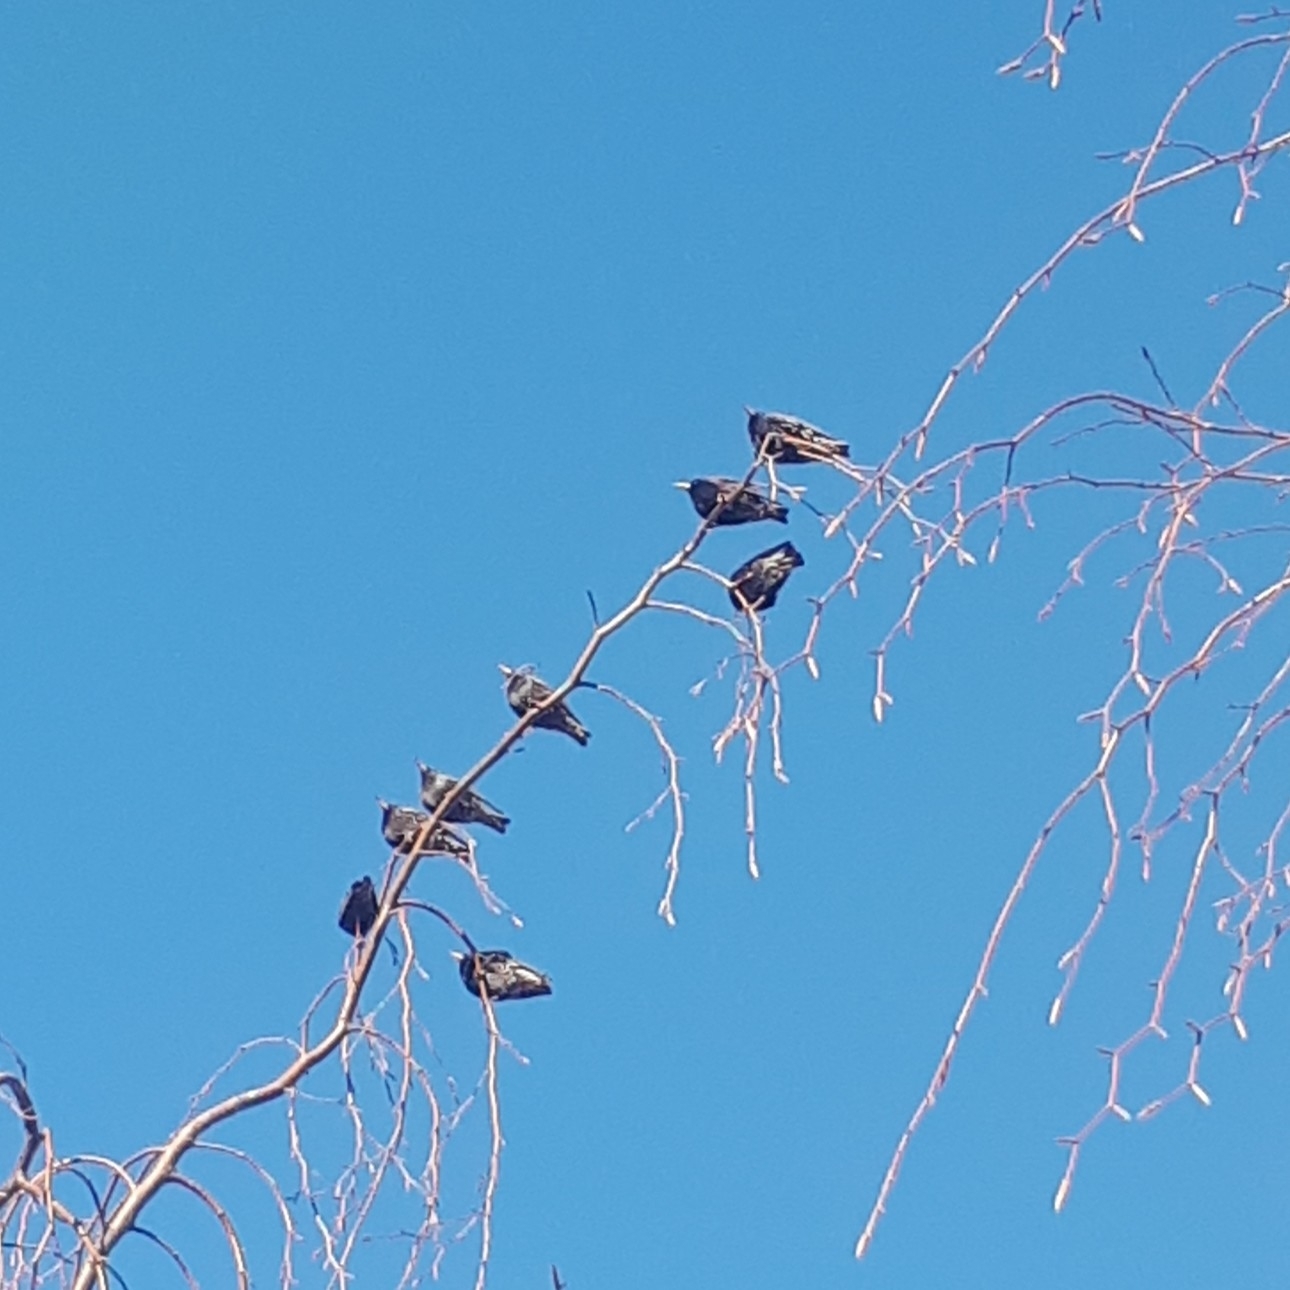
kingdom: Animalia
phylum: Chordata
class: Aves
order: Passeriformes
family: Sturnidae
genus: Sturnus
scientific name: Sturnus vulgaris
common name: Common starling
